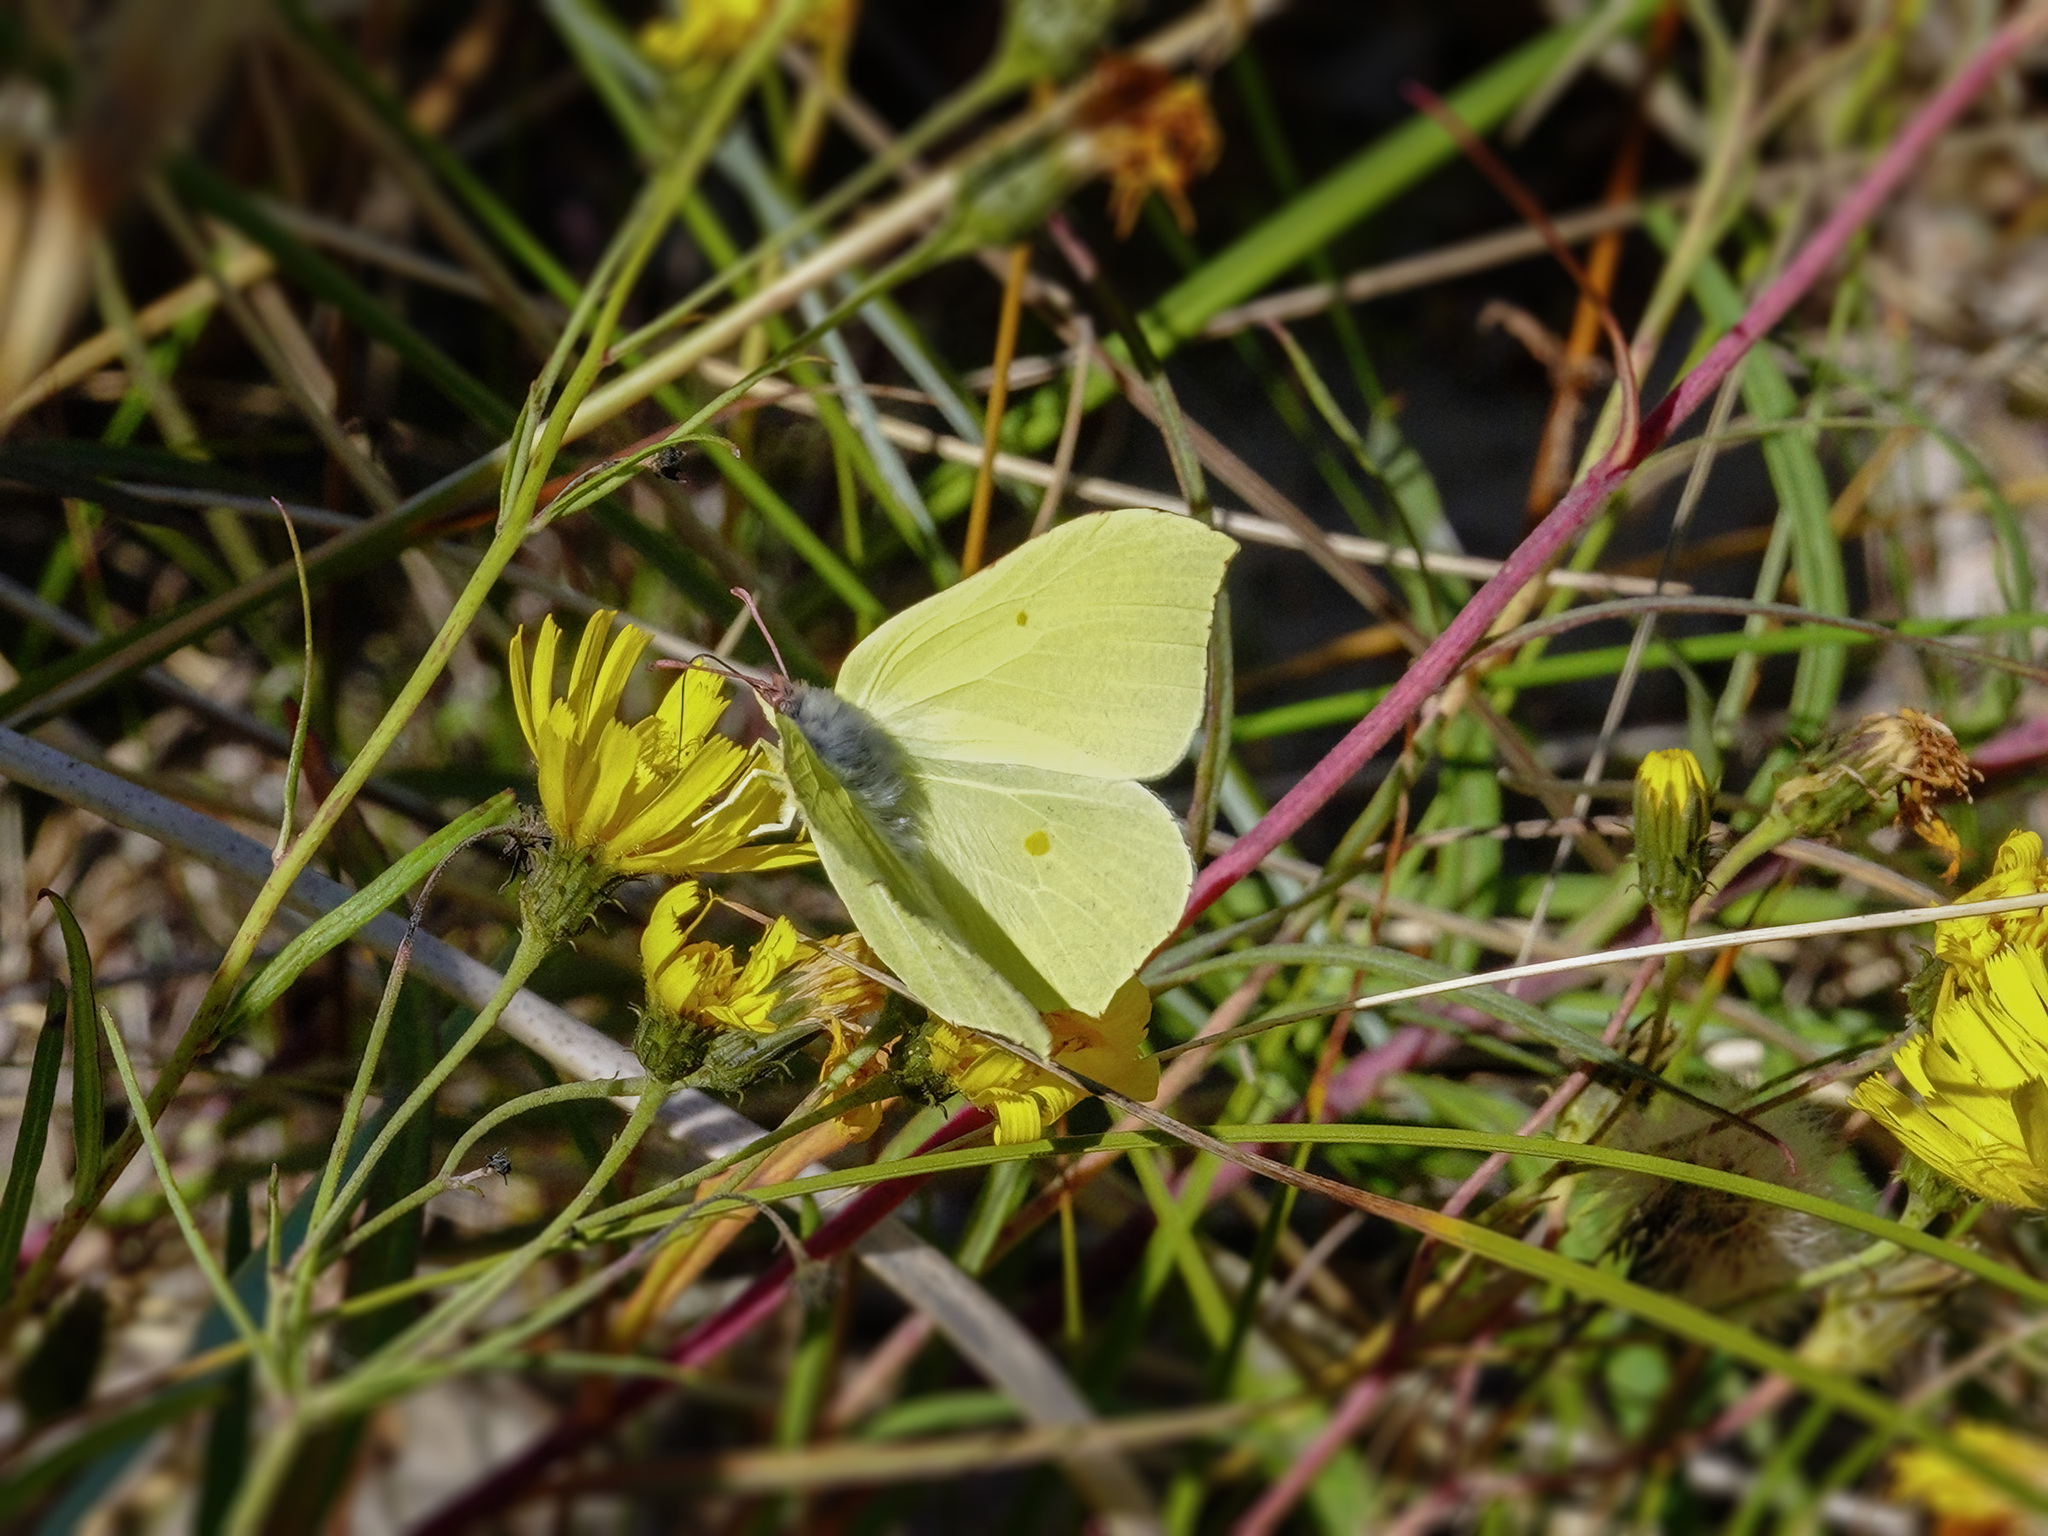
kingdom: Animalia
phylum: Arthropoda
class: Insecta
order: Lepidoptera
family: Pieridae
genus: Gonepteryx
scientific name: Gonepteryx rhamni
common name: Brimstone
